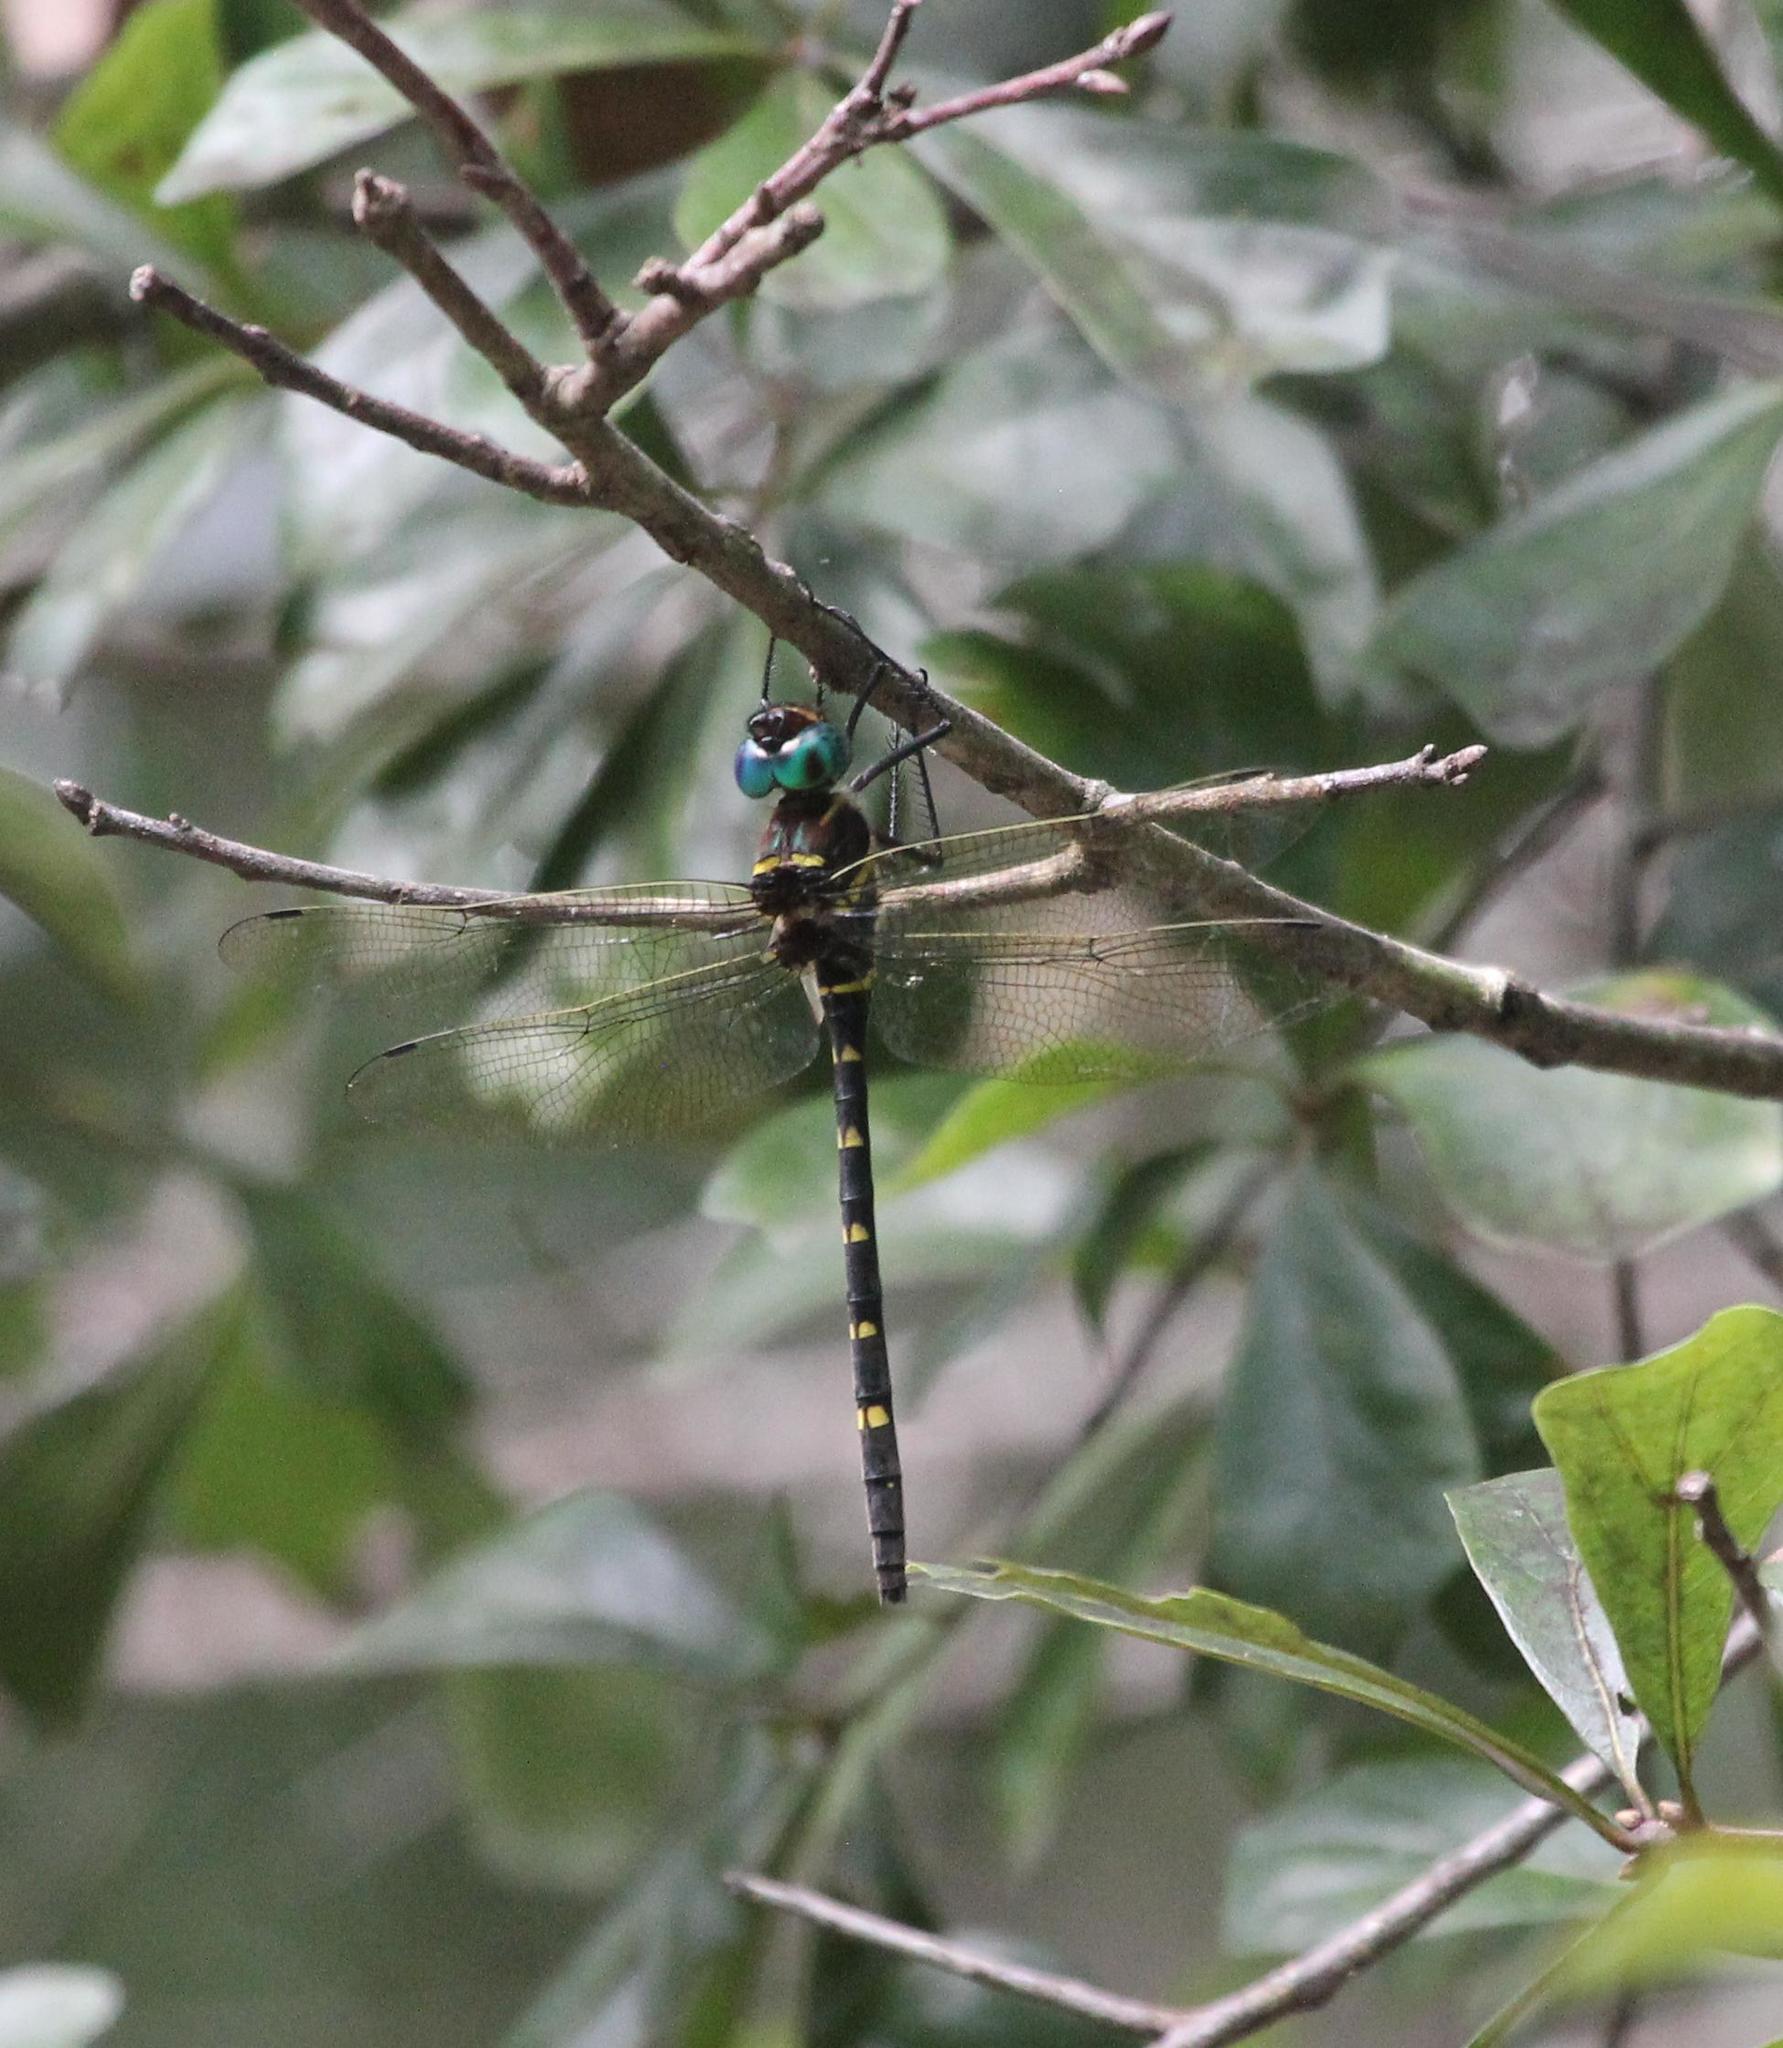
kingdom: Animalia
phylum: Arthropoda
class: Insecta
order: Odonata
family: Macromiidae
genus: Macromia
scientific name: Macromia taeniolata
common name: Royal river cruiser
